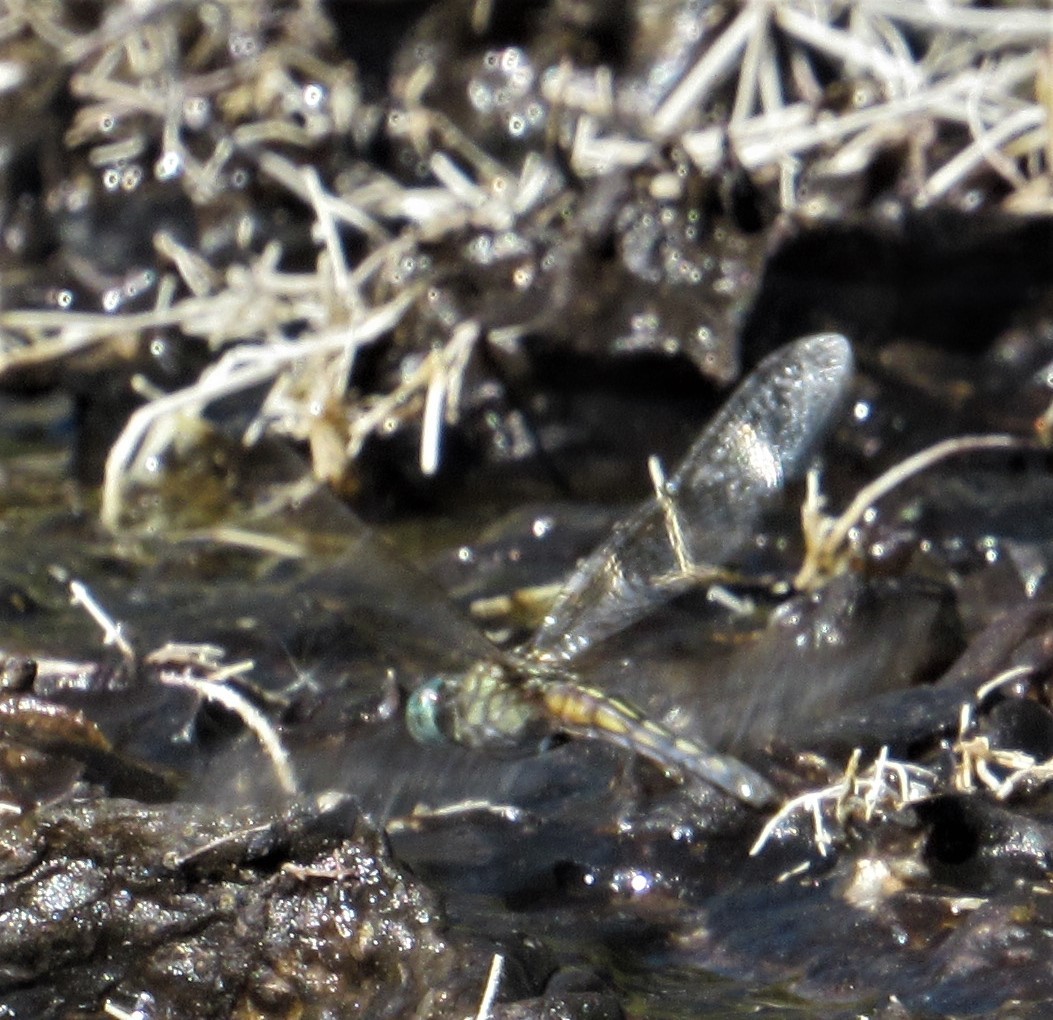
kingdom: Animalia
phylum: Arthropoda
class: Insecta
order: Odonata
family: Libellulidae
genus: Pachydiplax
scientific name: Pachydiplax longipennis
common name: Blue dasher
